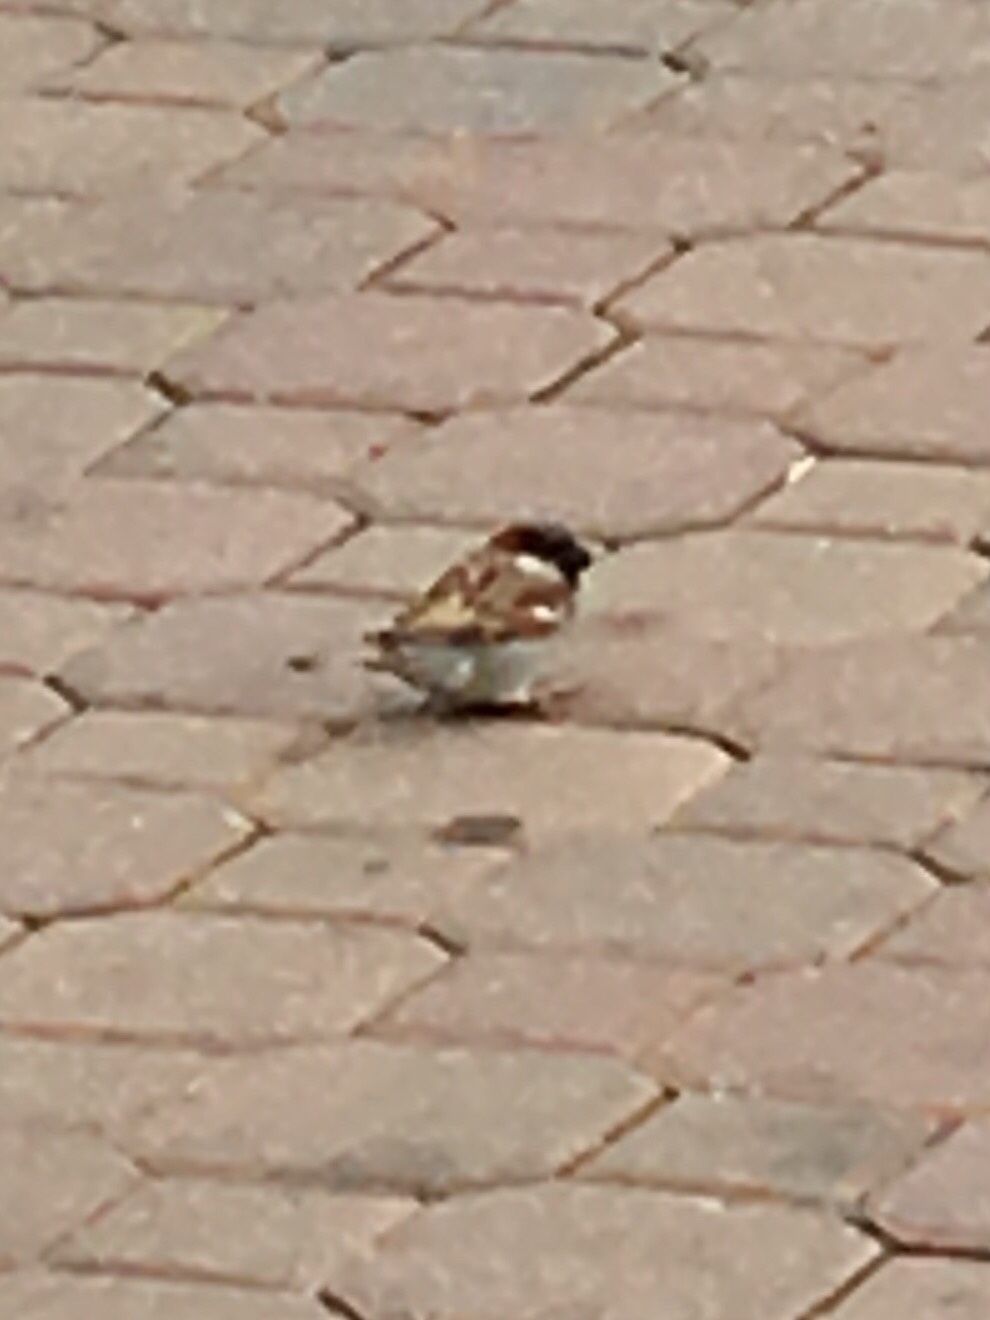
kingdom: Animalia
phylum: Chordata
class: Aves
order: Passeriformes
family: Passeridae
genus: Passer
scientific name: Passer domesticus
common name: House sparrow
